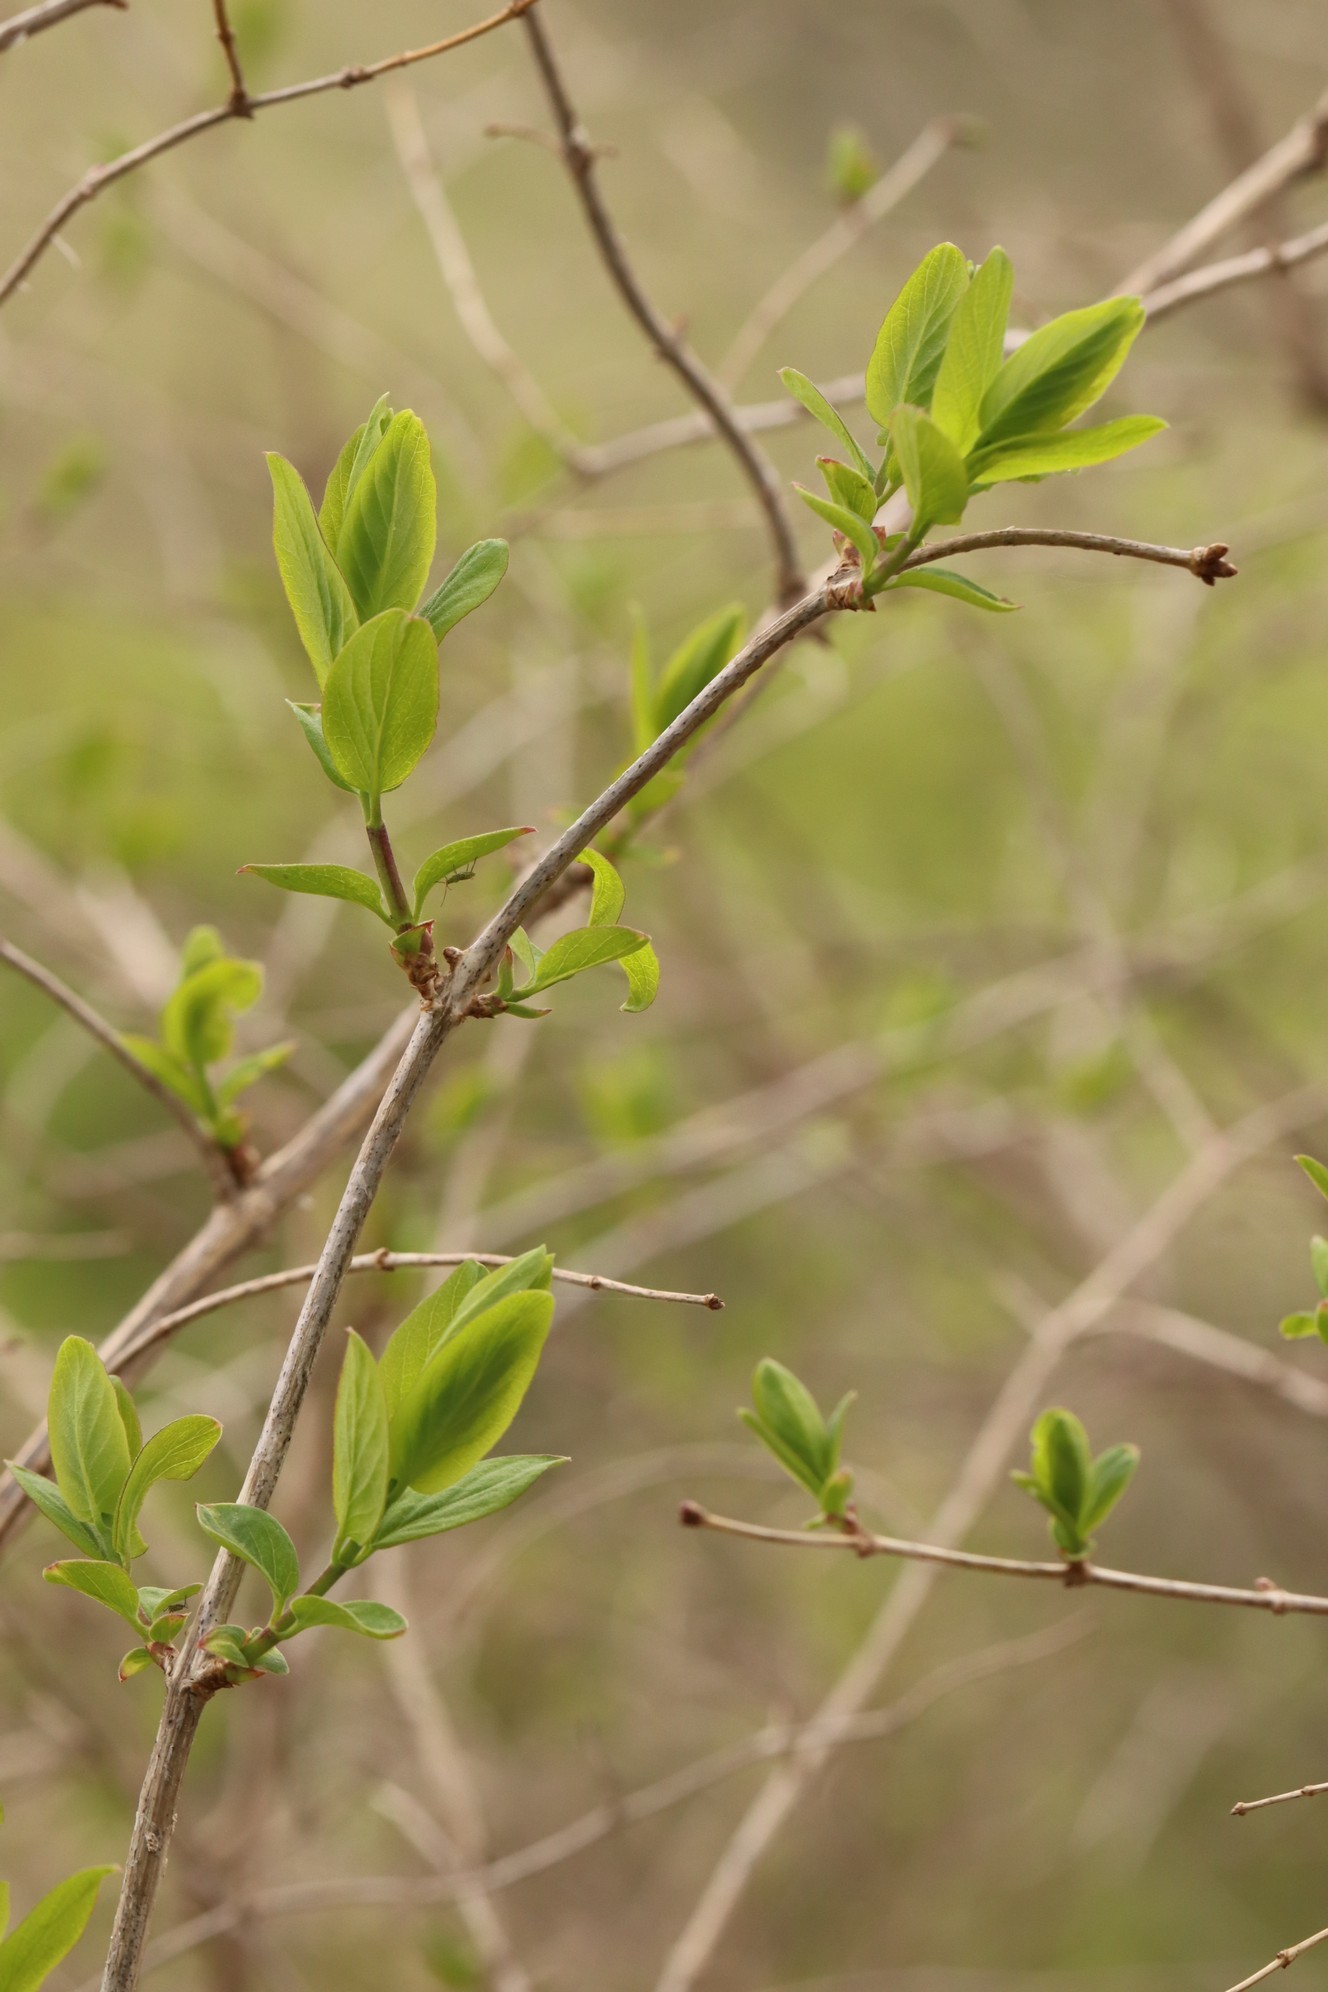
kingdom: Plantae
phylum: Tracheophyta
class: Magnoliopsida
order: Dipsacales
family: Caprifoliaceae
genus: Lonicera
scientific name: Lonicera tatarica
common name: Tatarian honeysuckle
